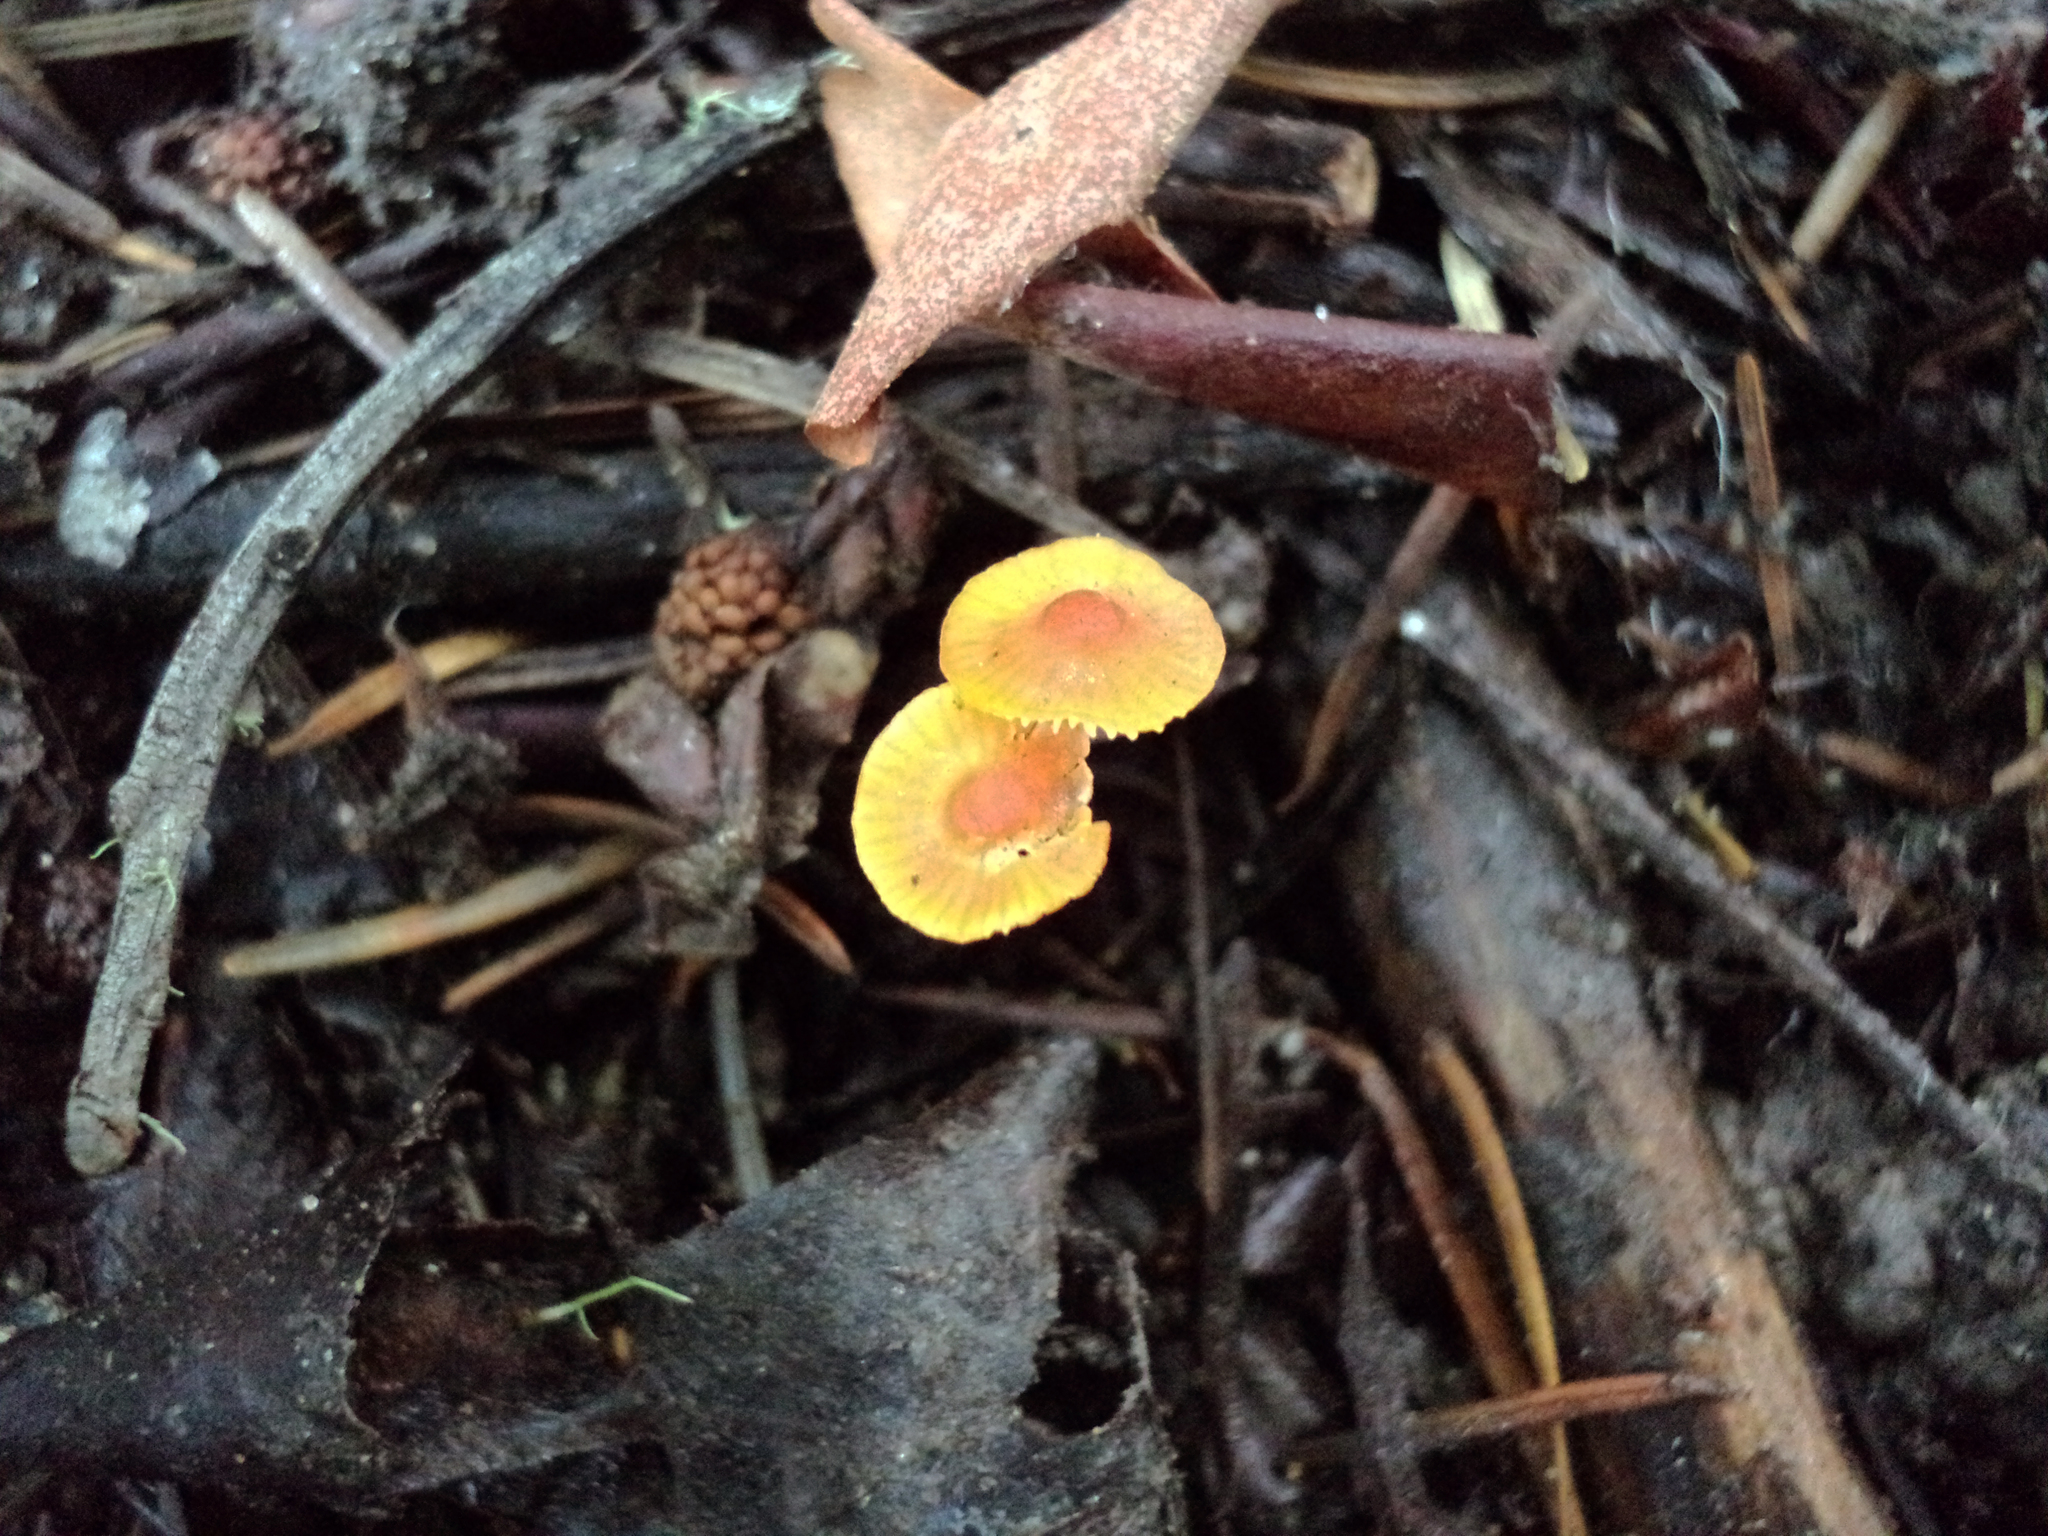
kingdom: Fungi
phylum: Basidiomycota
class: Agaricomycetes
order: Agaricales
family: Mycenaceae
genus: Mycena
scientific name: Mycena acicula
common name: Orange bonnet
